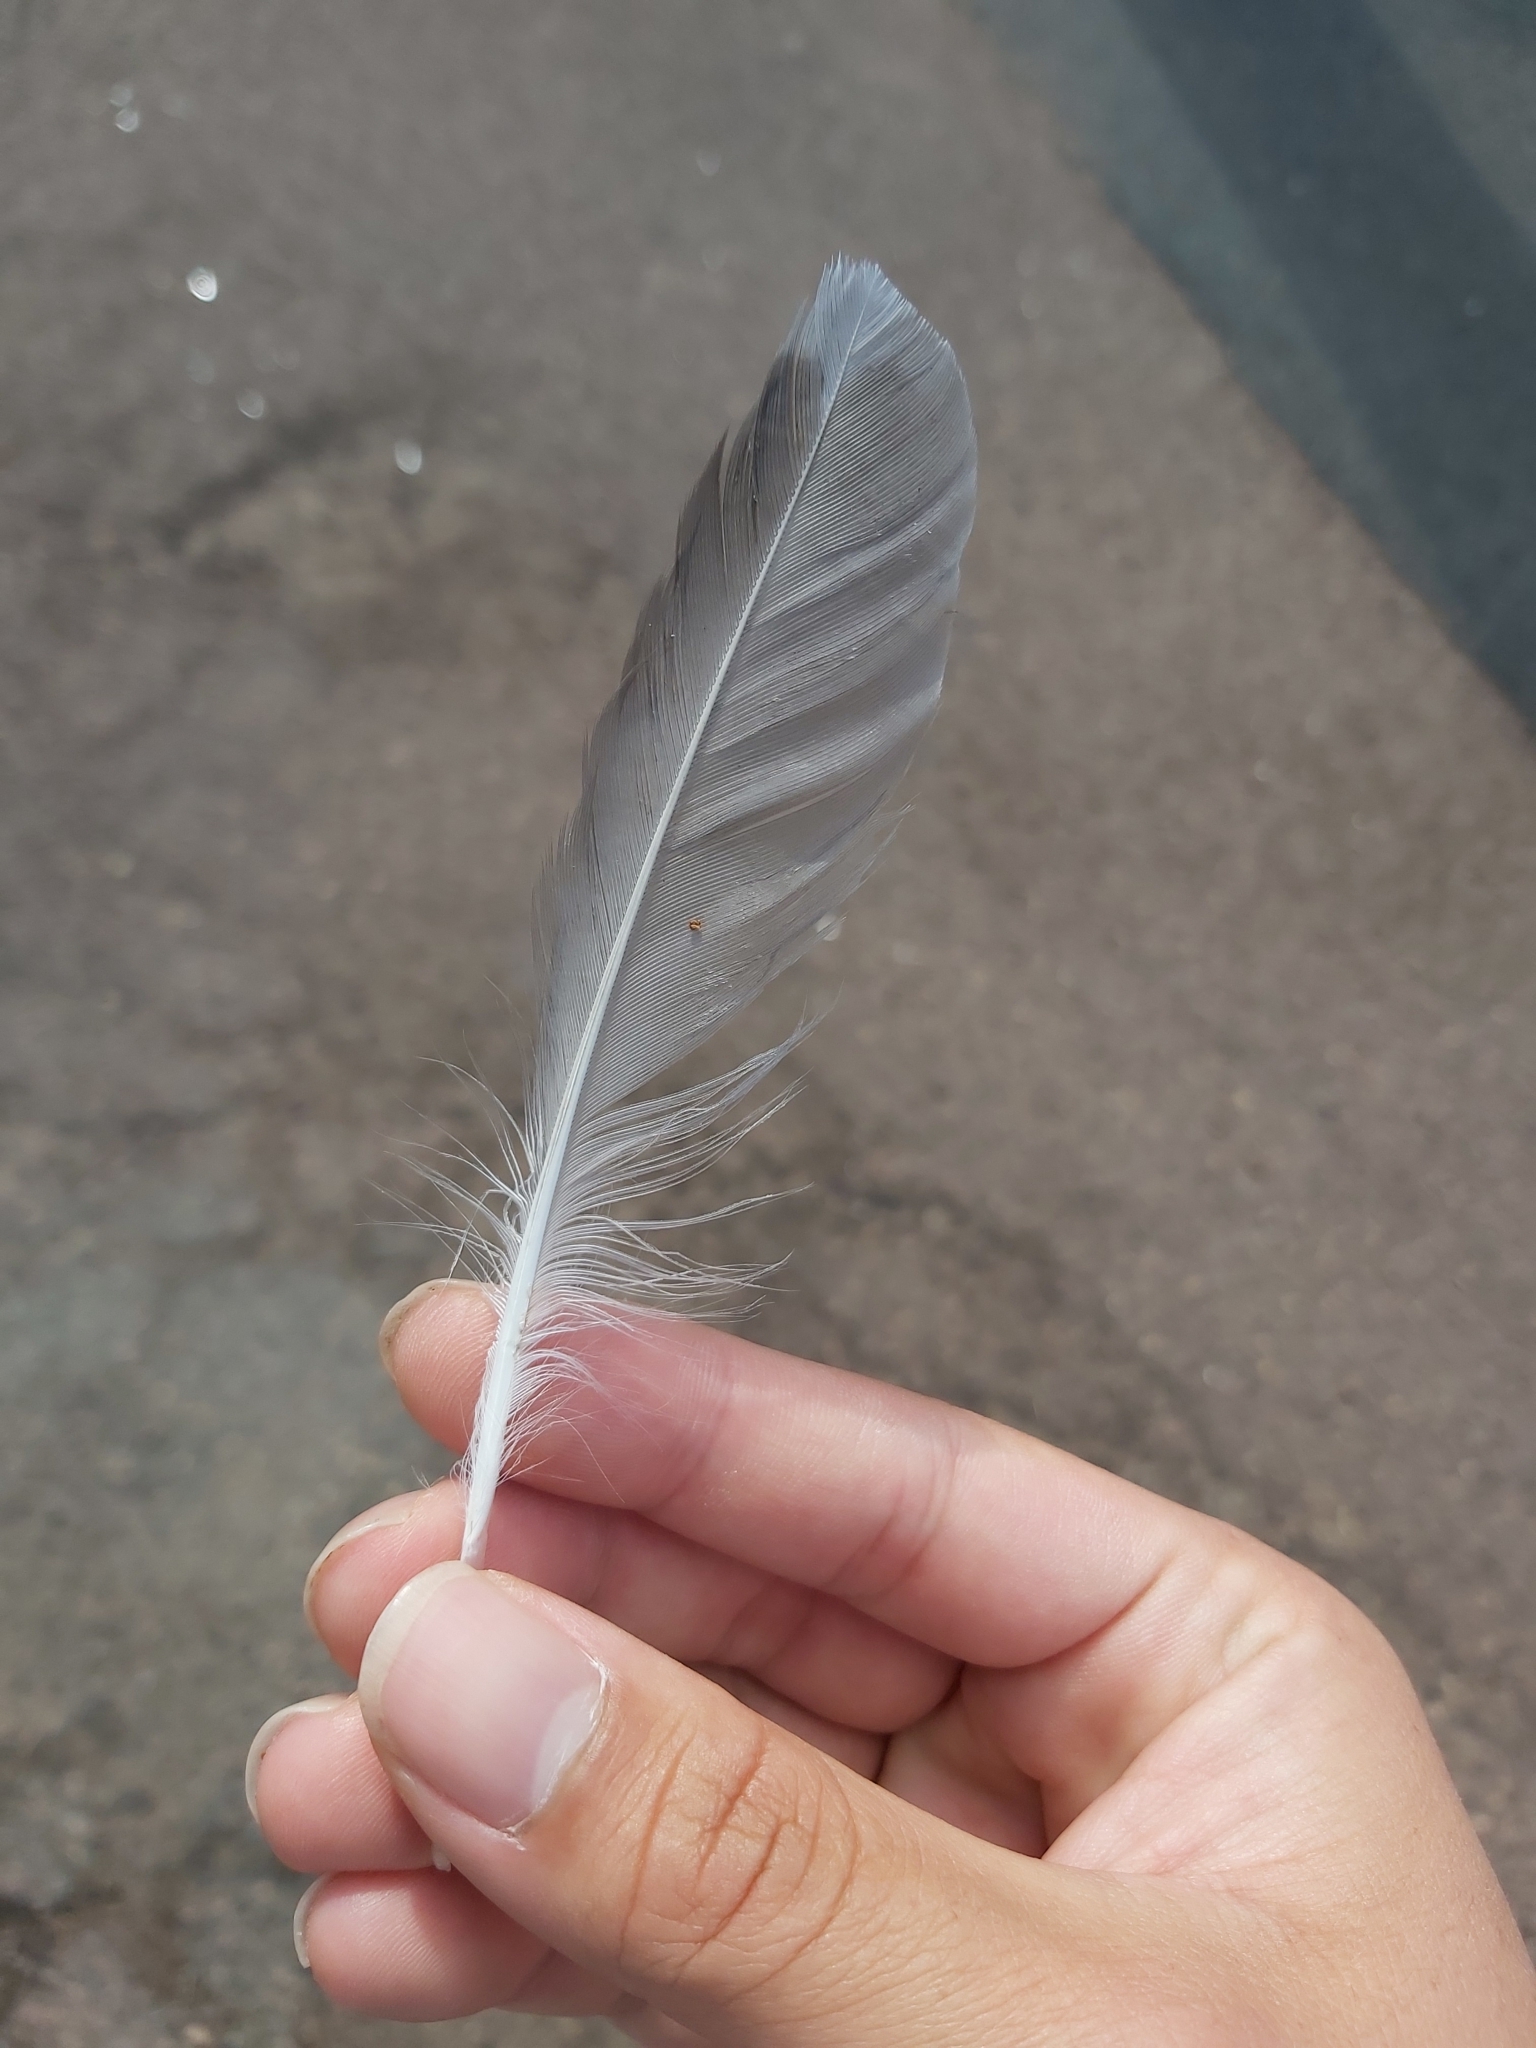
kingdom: Animalia
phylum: Chordata
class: Aves
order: Charadriiformes
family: Laridae
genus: Chroicocephalus
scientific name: Chroicocephalus novaehollandiae
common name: Silver gull
